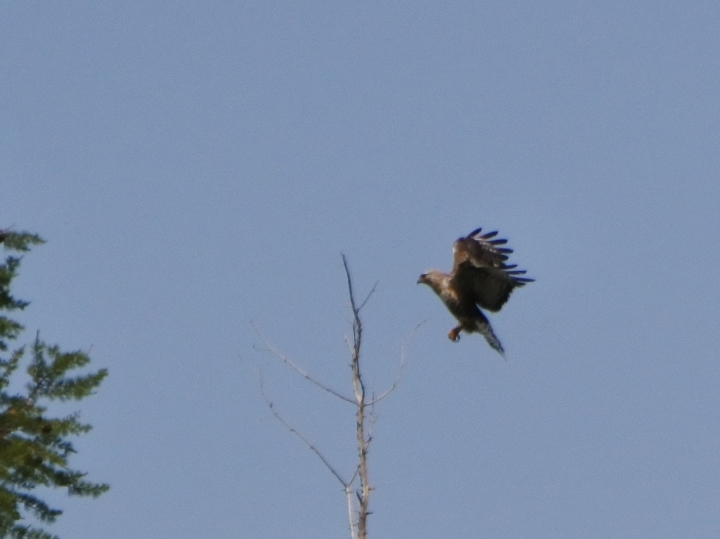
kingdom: Animalia
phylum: Chordata
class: Aves
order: Accipitriformes
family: Accipitridae
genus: Buteo
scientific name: Buteo lagopus
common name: Rough-legged buzzard
